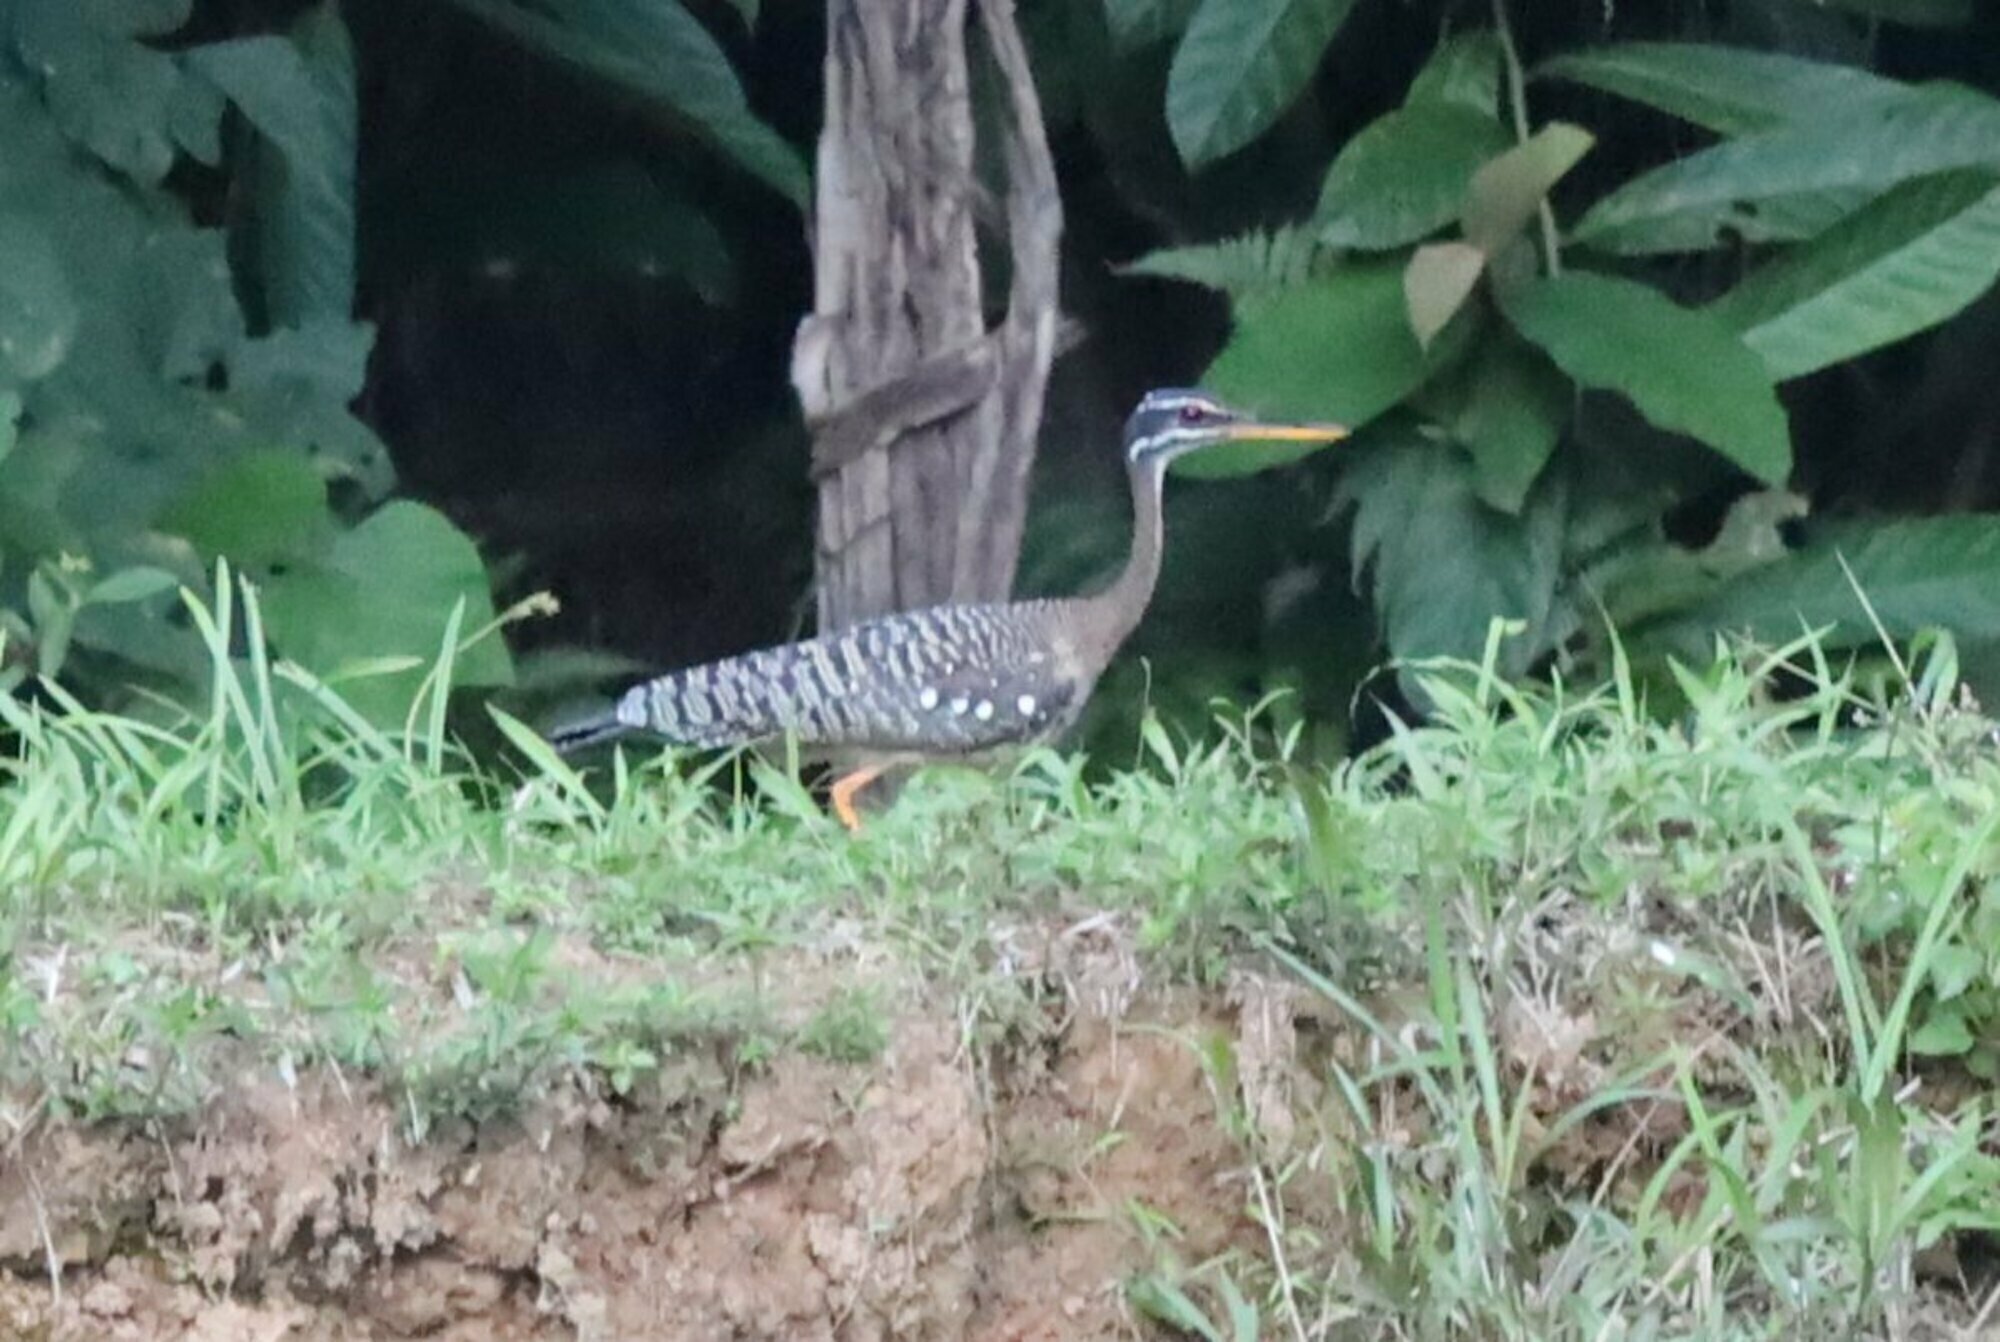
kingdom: Animalia
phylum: Chordata
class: Aves
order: Eurypygiformes
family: Eurypygidae
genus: Eurypyga
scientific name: Eurypyga helias
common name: Sunbittern
